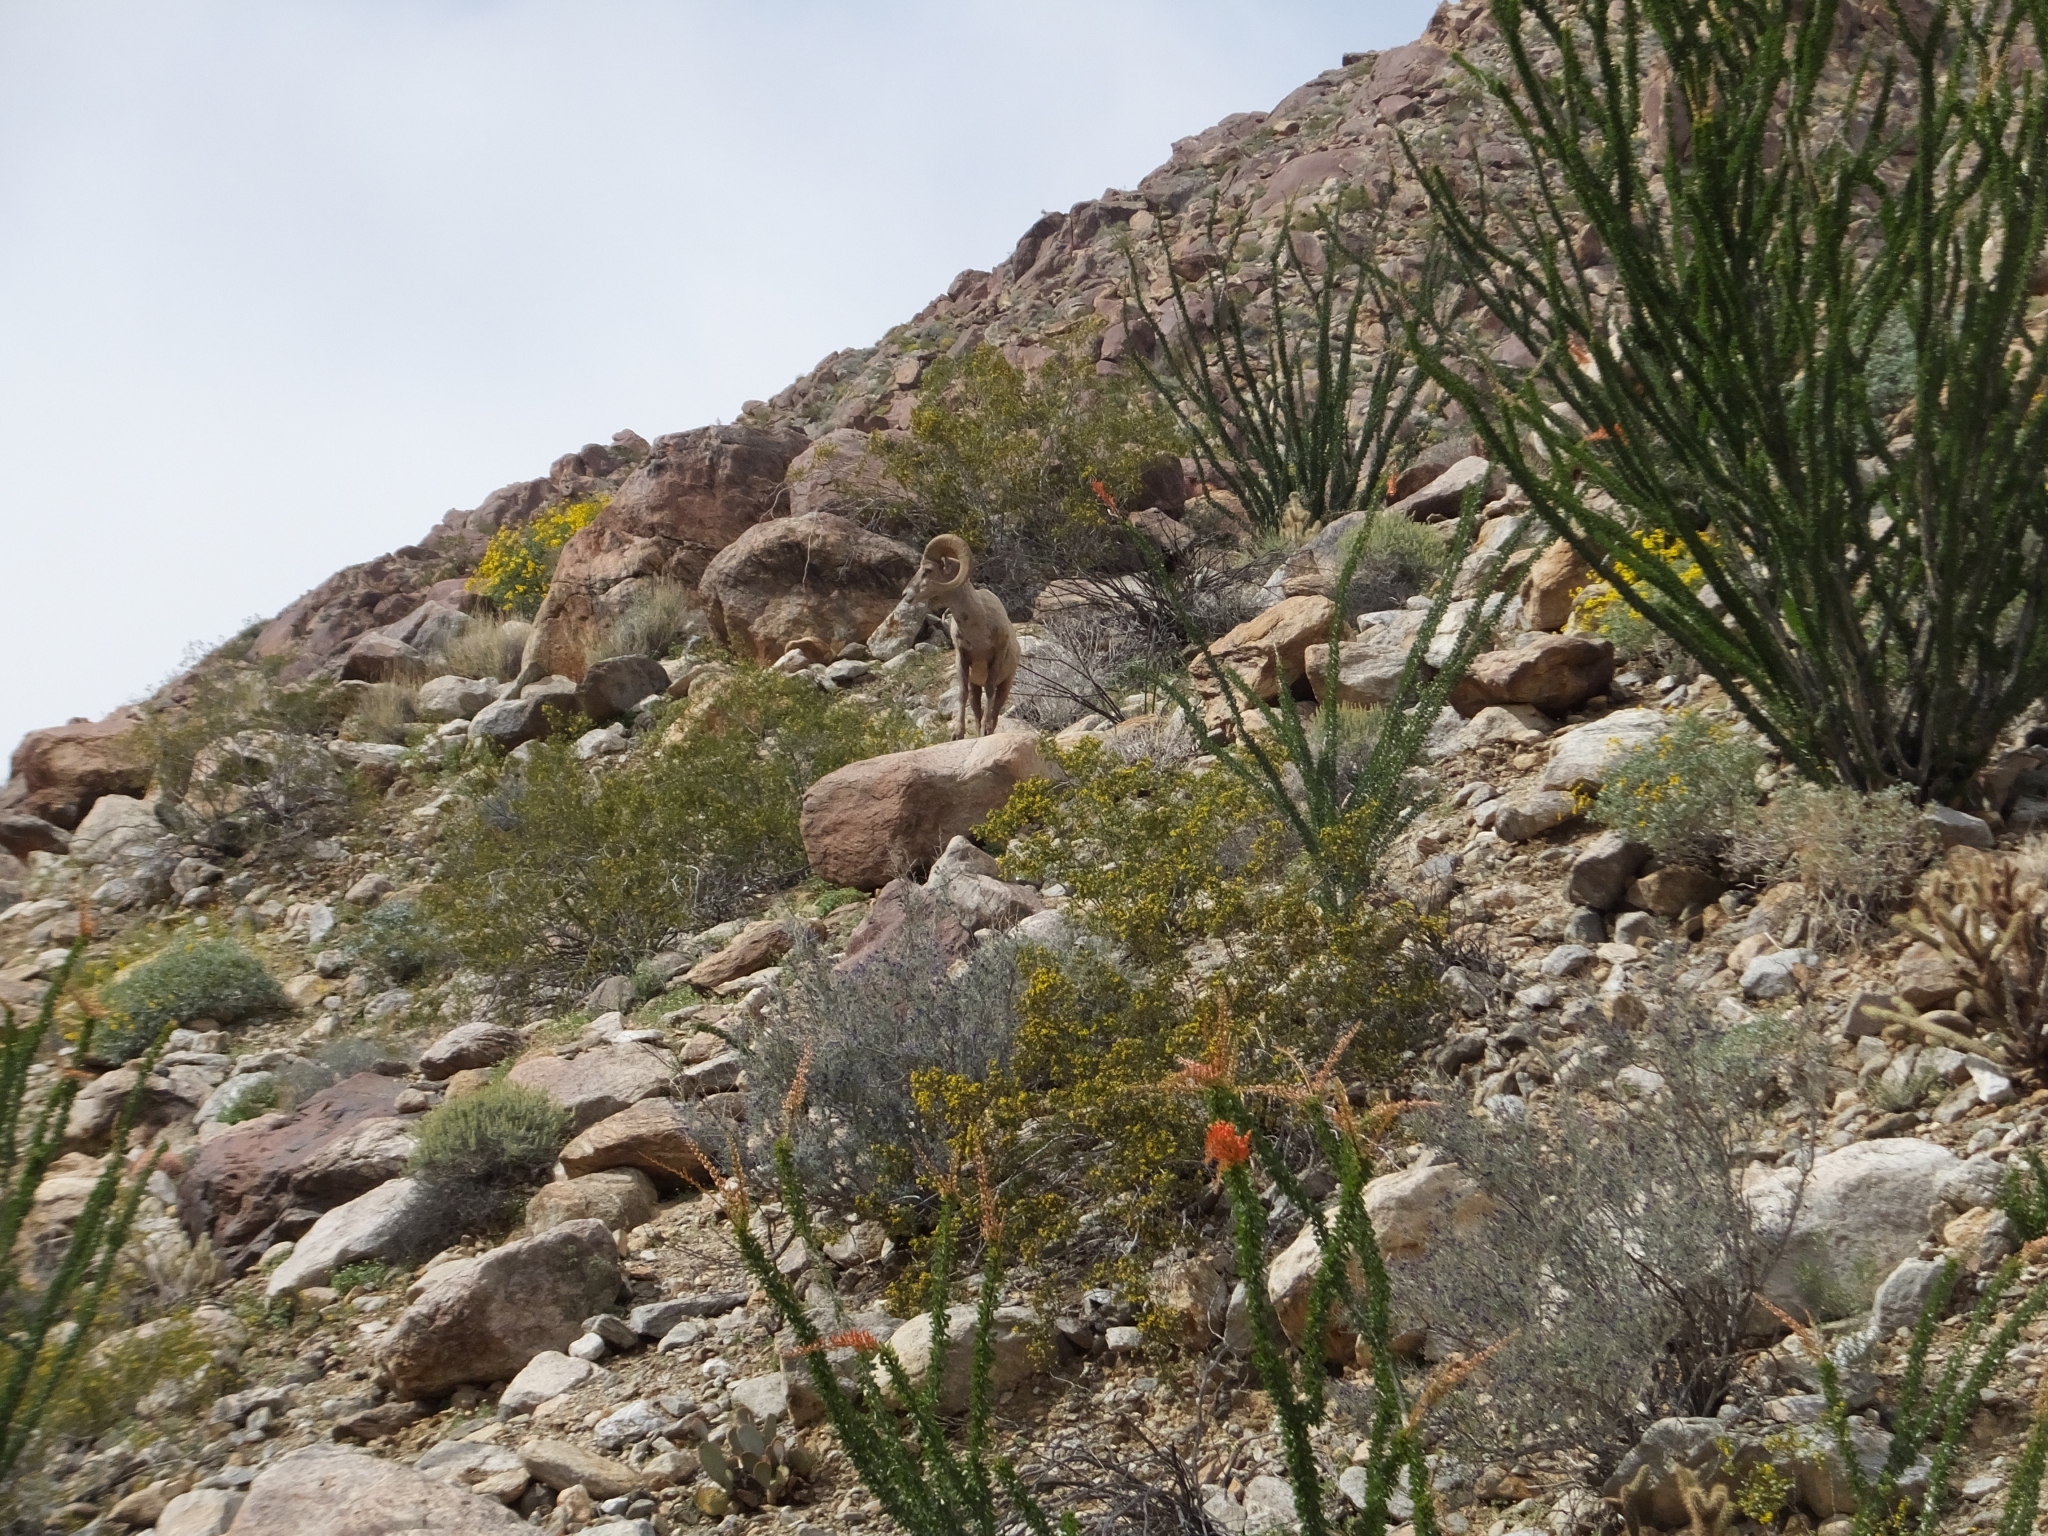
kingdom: Animalia
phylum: Chordata
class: Mammalia
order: Artiodactyla
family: Bovidae
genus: Ovis
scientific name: Ovis canadensis
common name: Bighorn sheep
